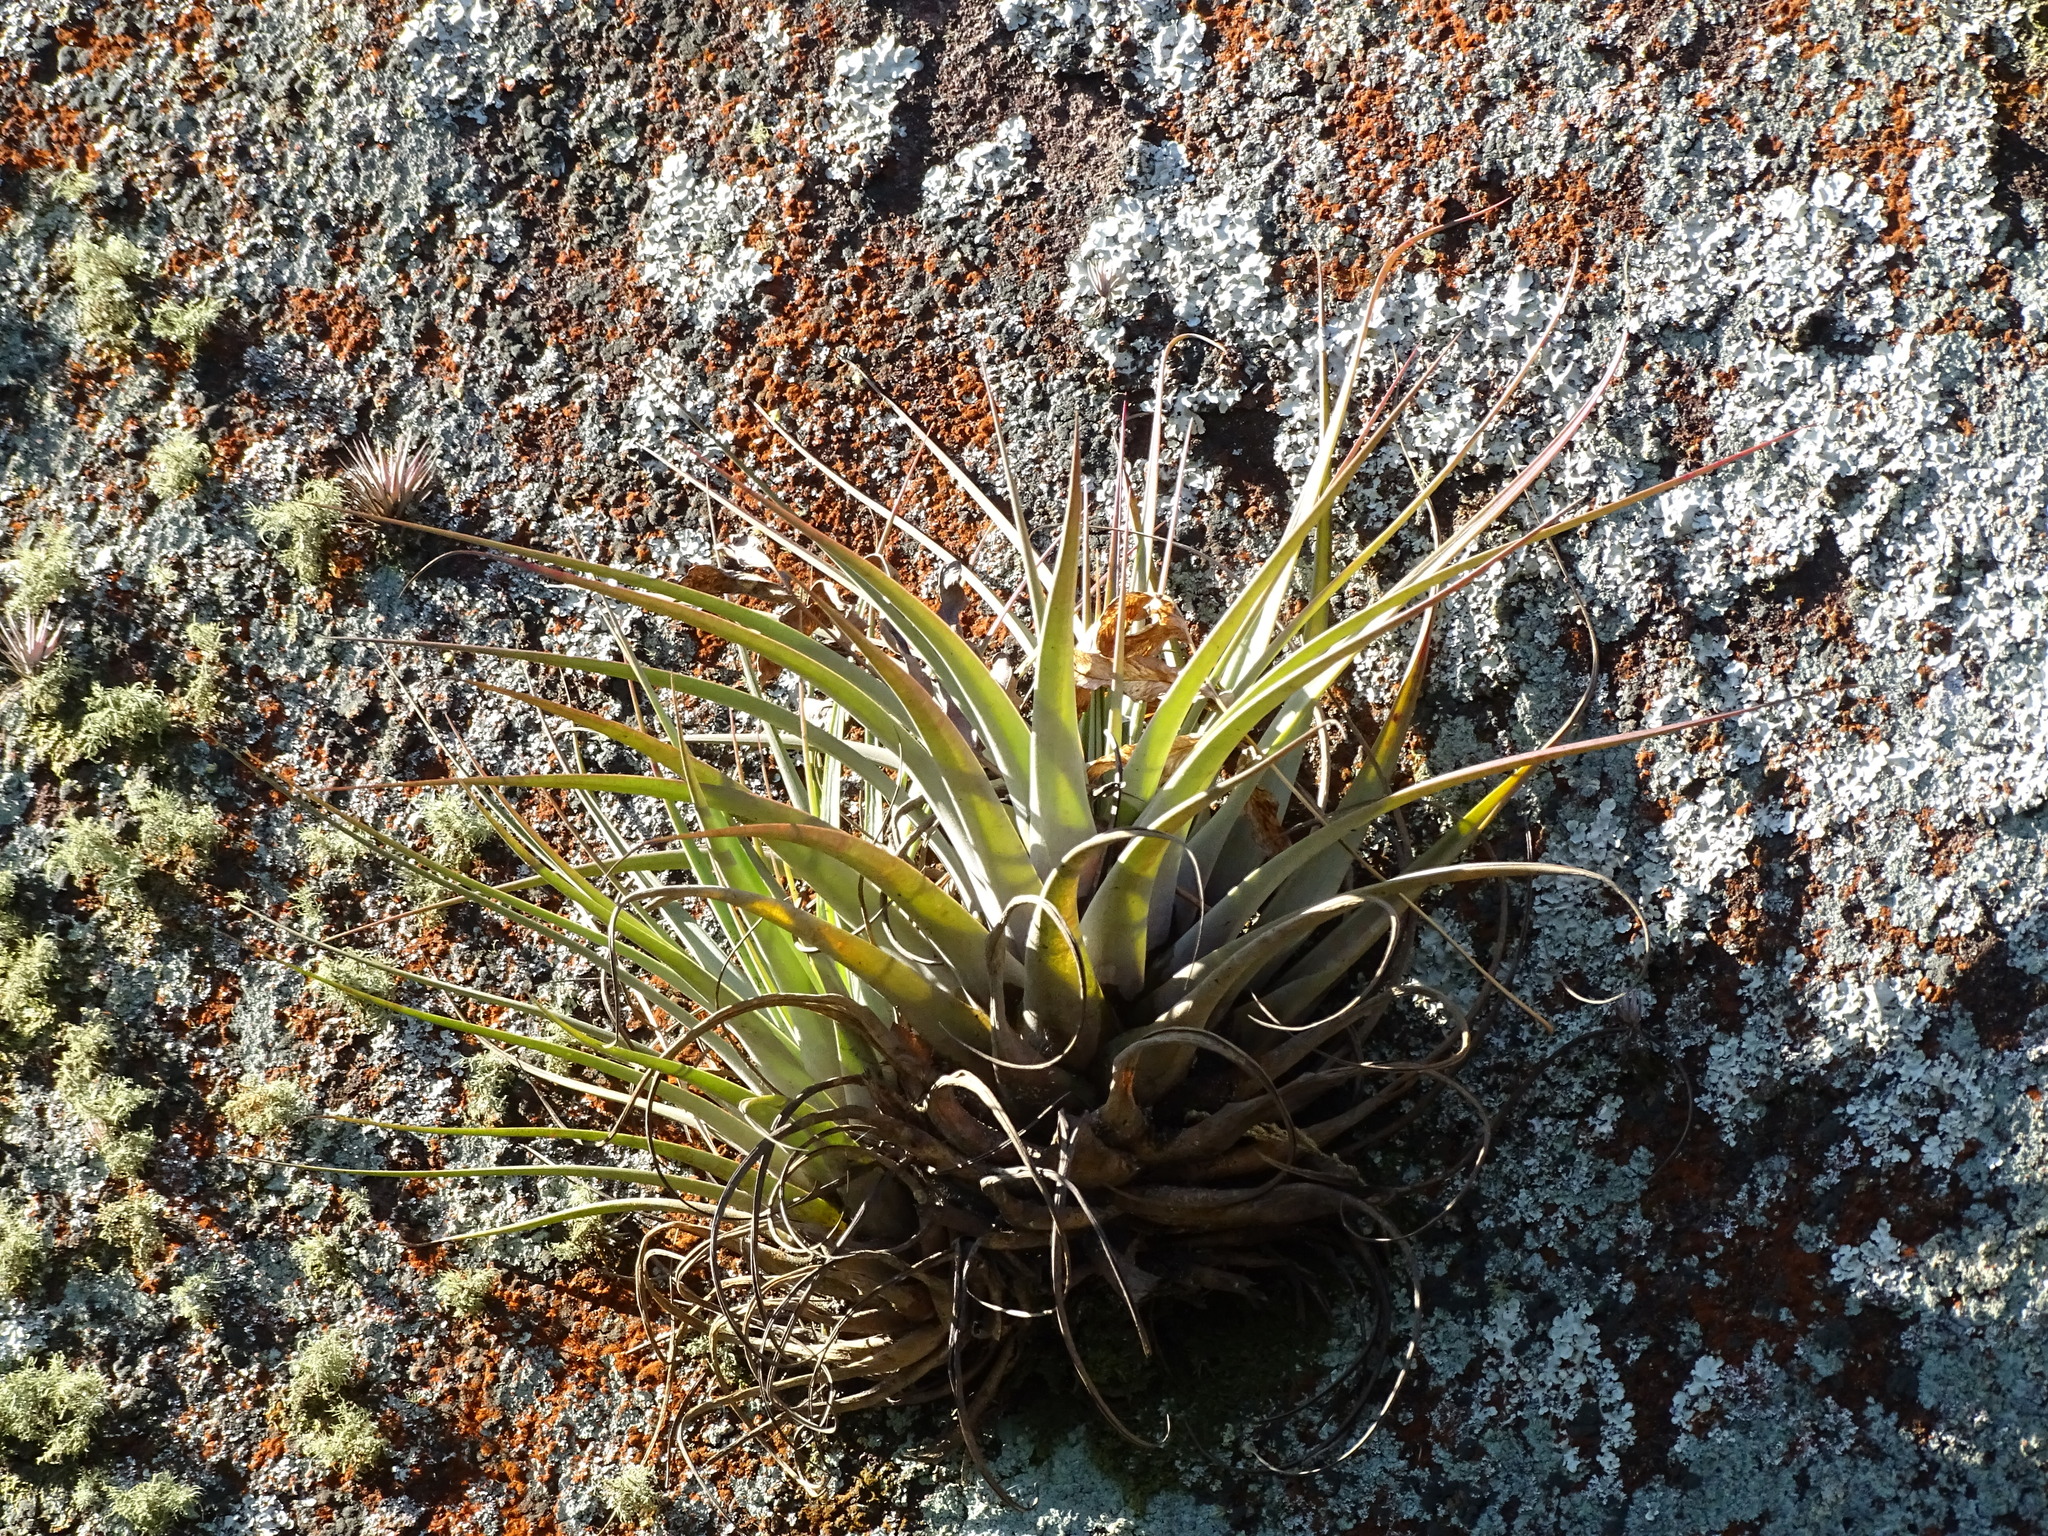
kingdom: Plantae
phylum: Tracheophyta
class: Liliopsida
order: Poales
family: Bromeliaceae
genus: Tillandsia
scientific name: Tillandsia fasciculata
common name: Giant airplant
